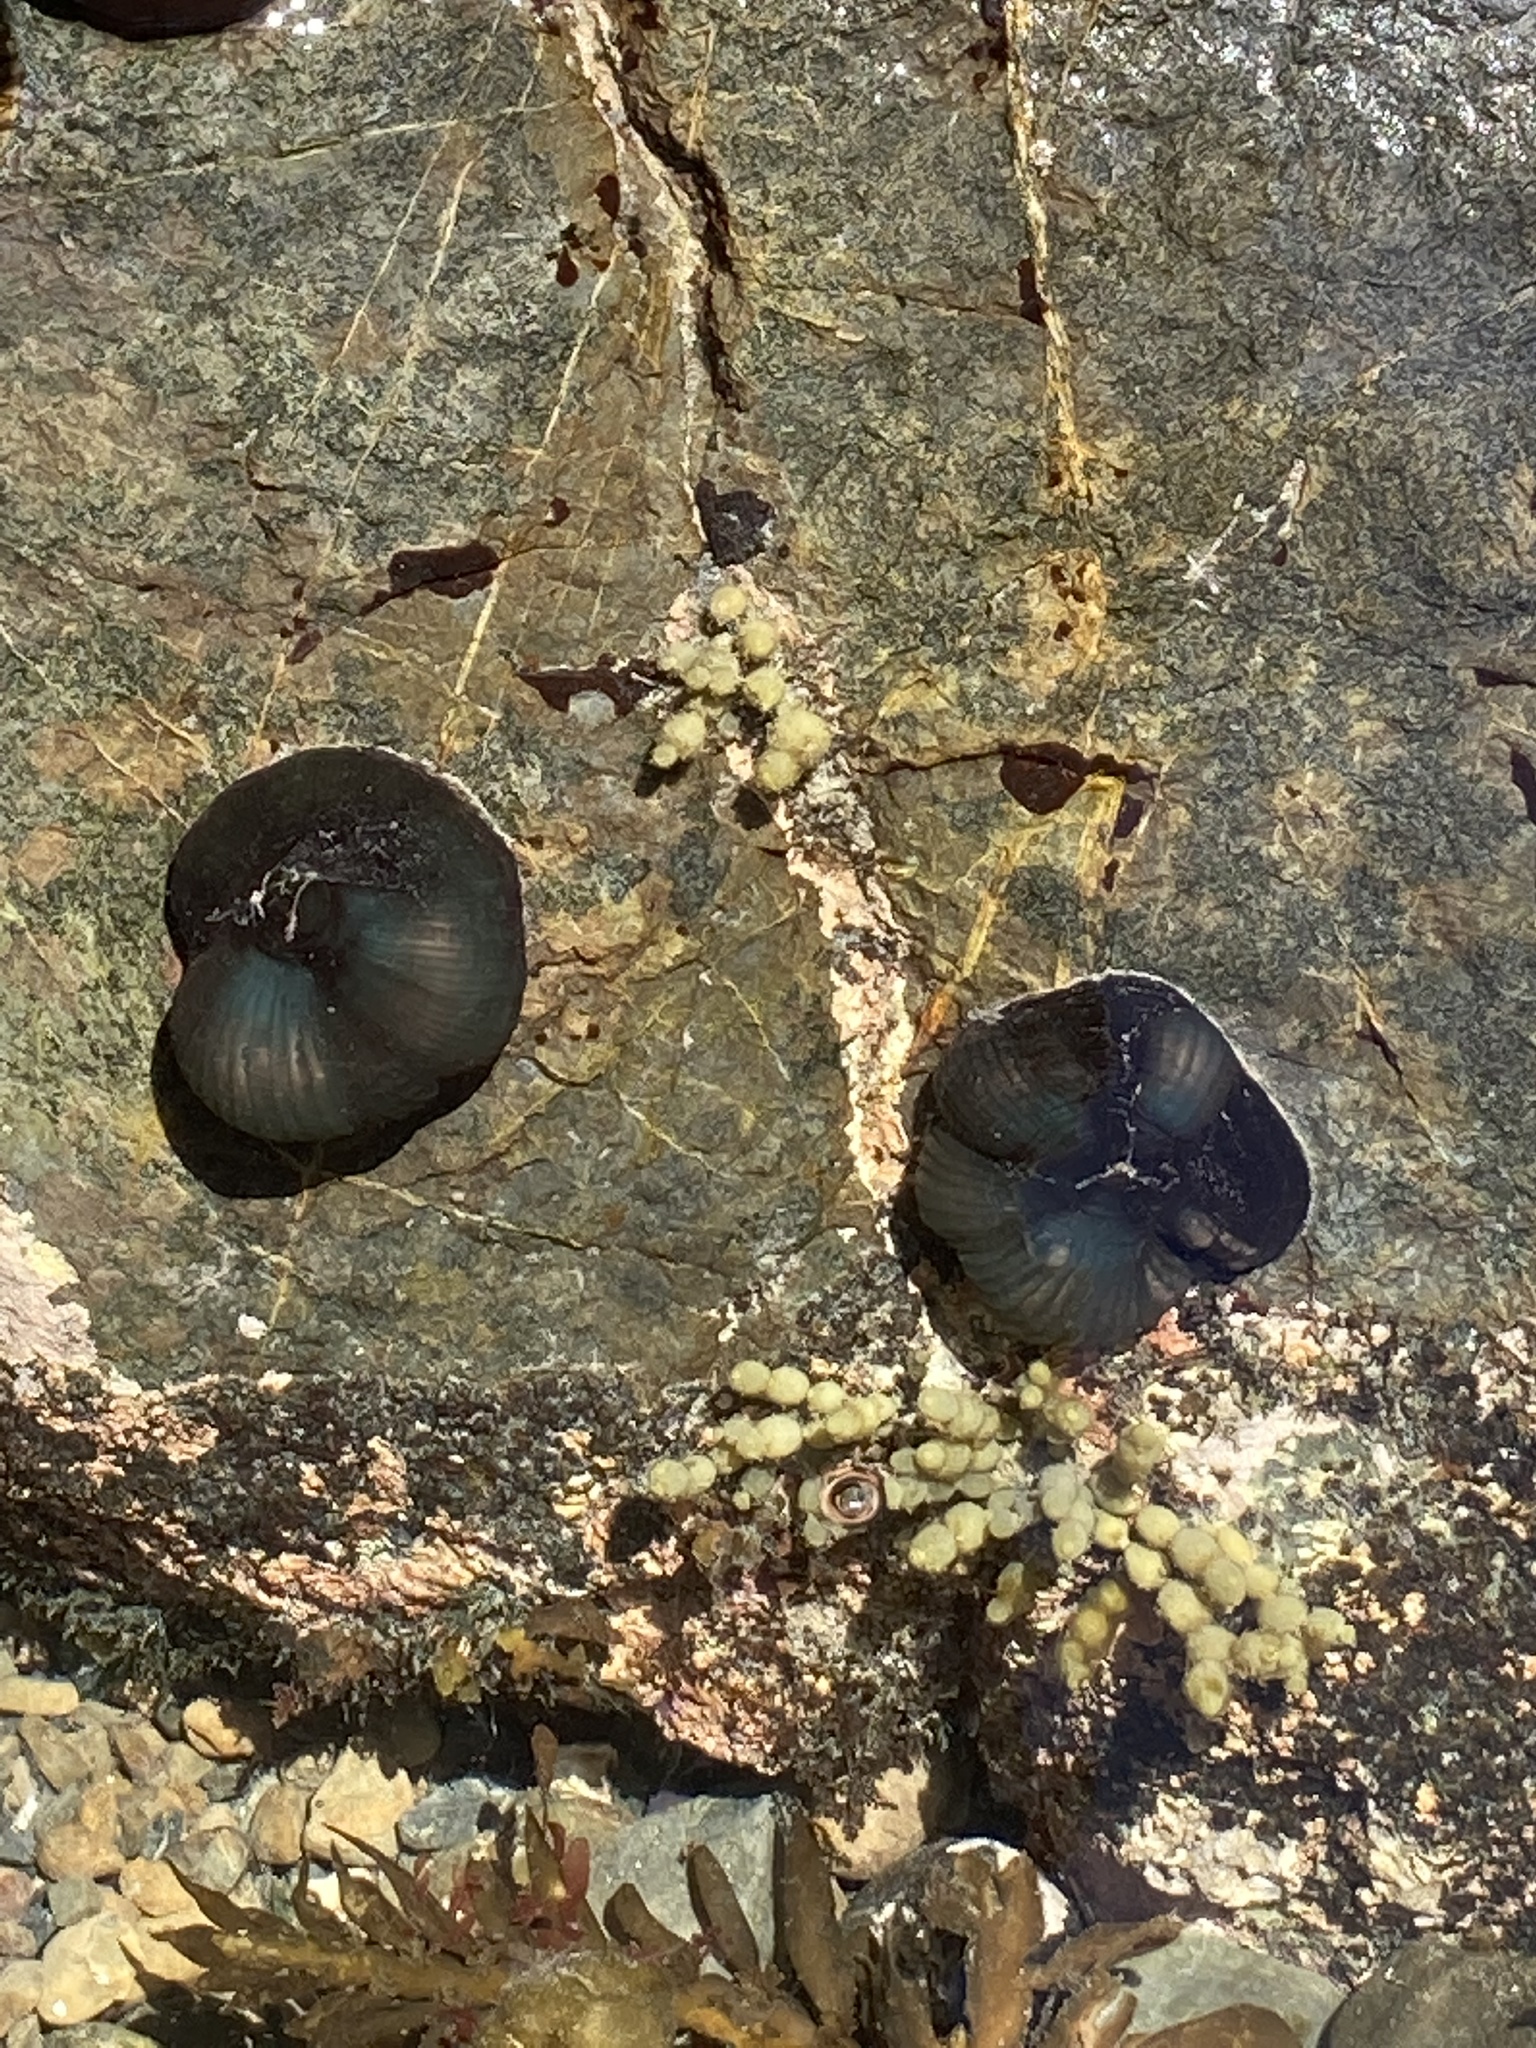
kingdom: Animalia
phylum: Cnidaria
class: Anthozoa
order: Actiniaria
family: Actiniidae
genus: Actinia
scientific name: Actinia tenebrosa
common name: Waratah anemone
